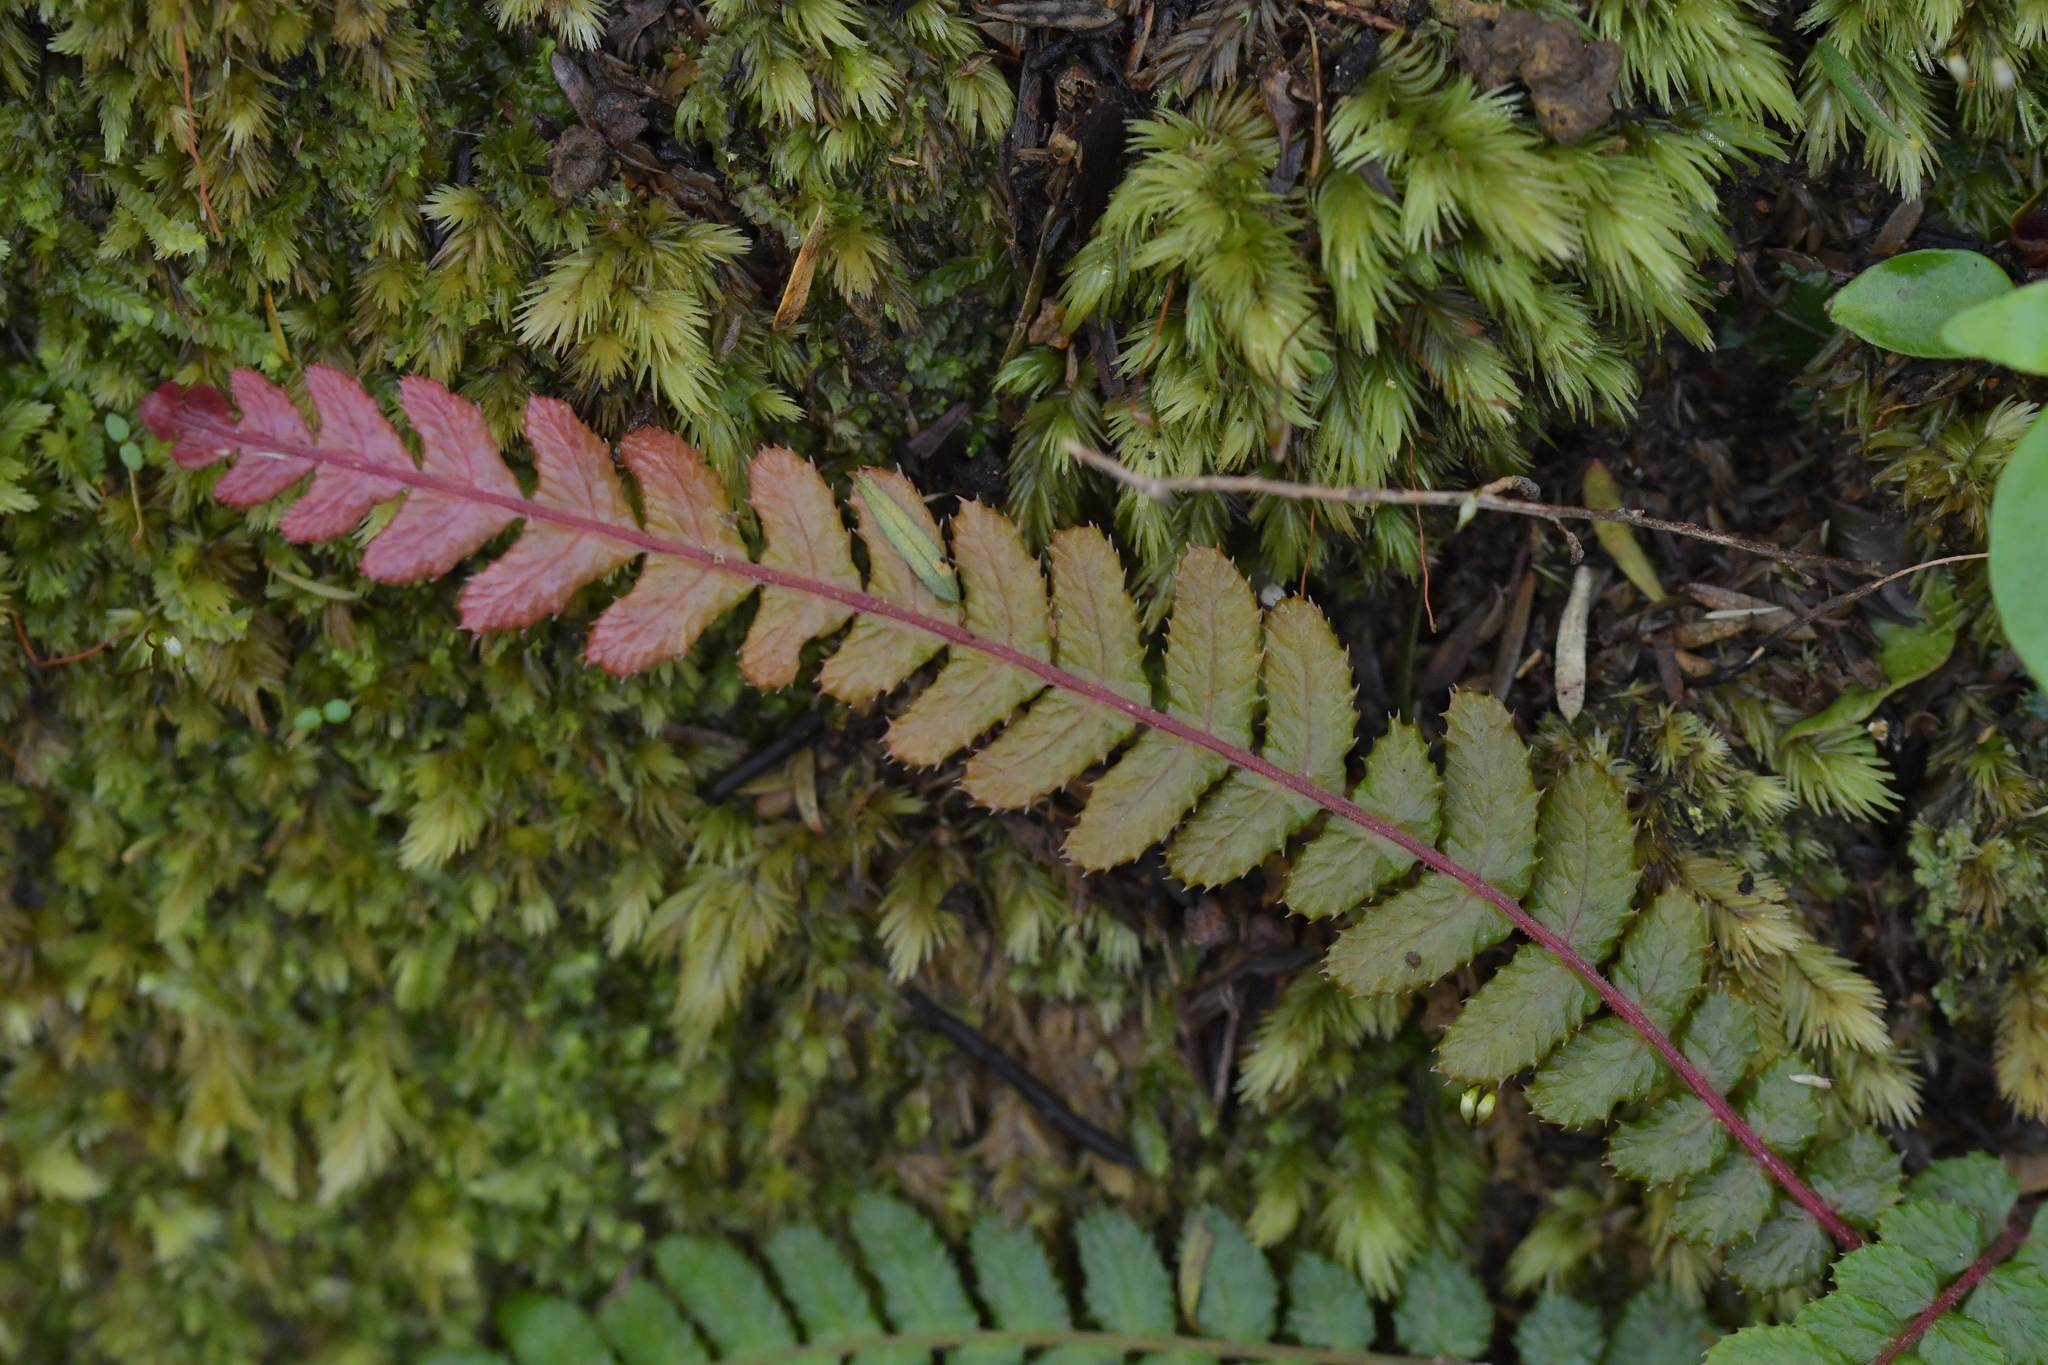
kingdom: Plantae
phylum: Tracheophyta
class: Polypodiopsida
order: Polypodiales
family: Blechnaceae
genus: Doodia
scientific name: Doodia australis
